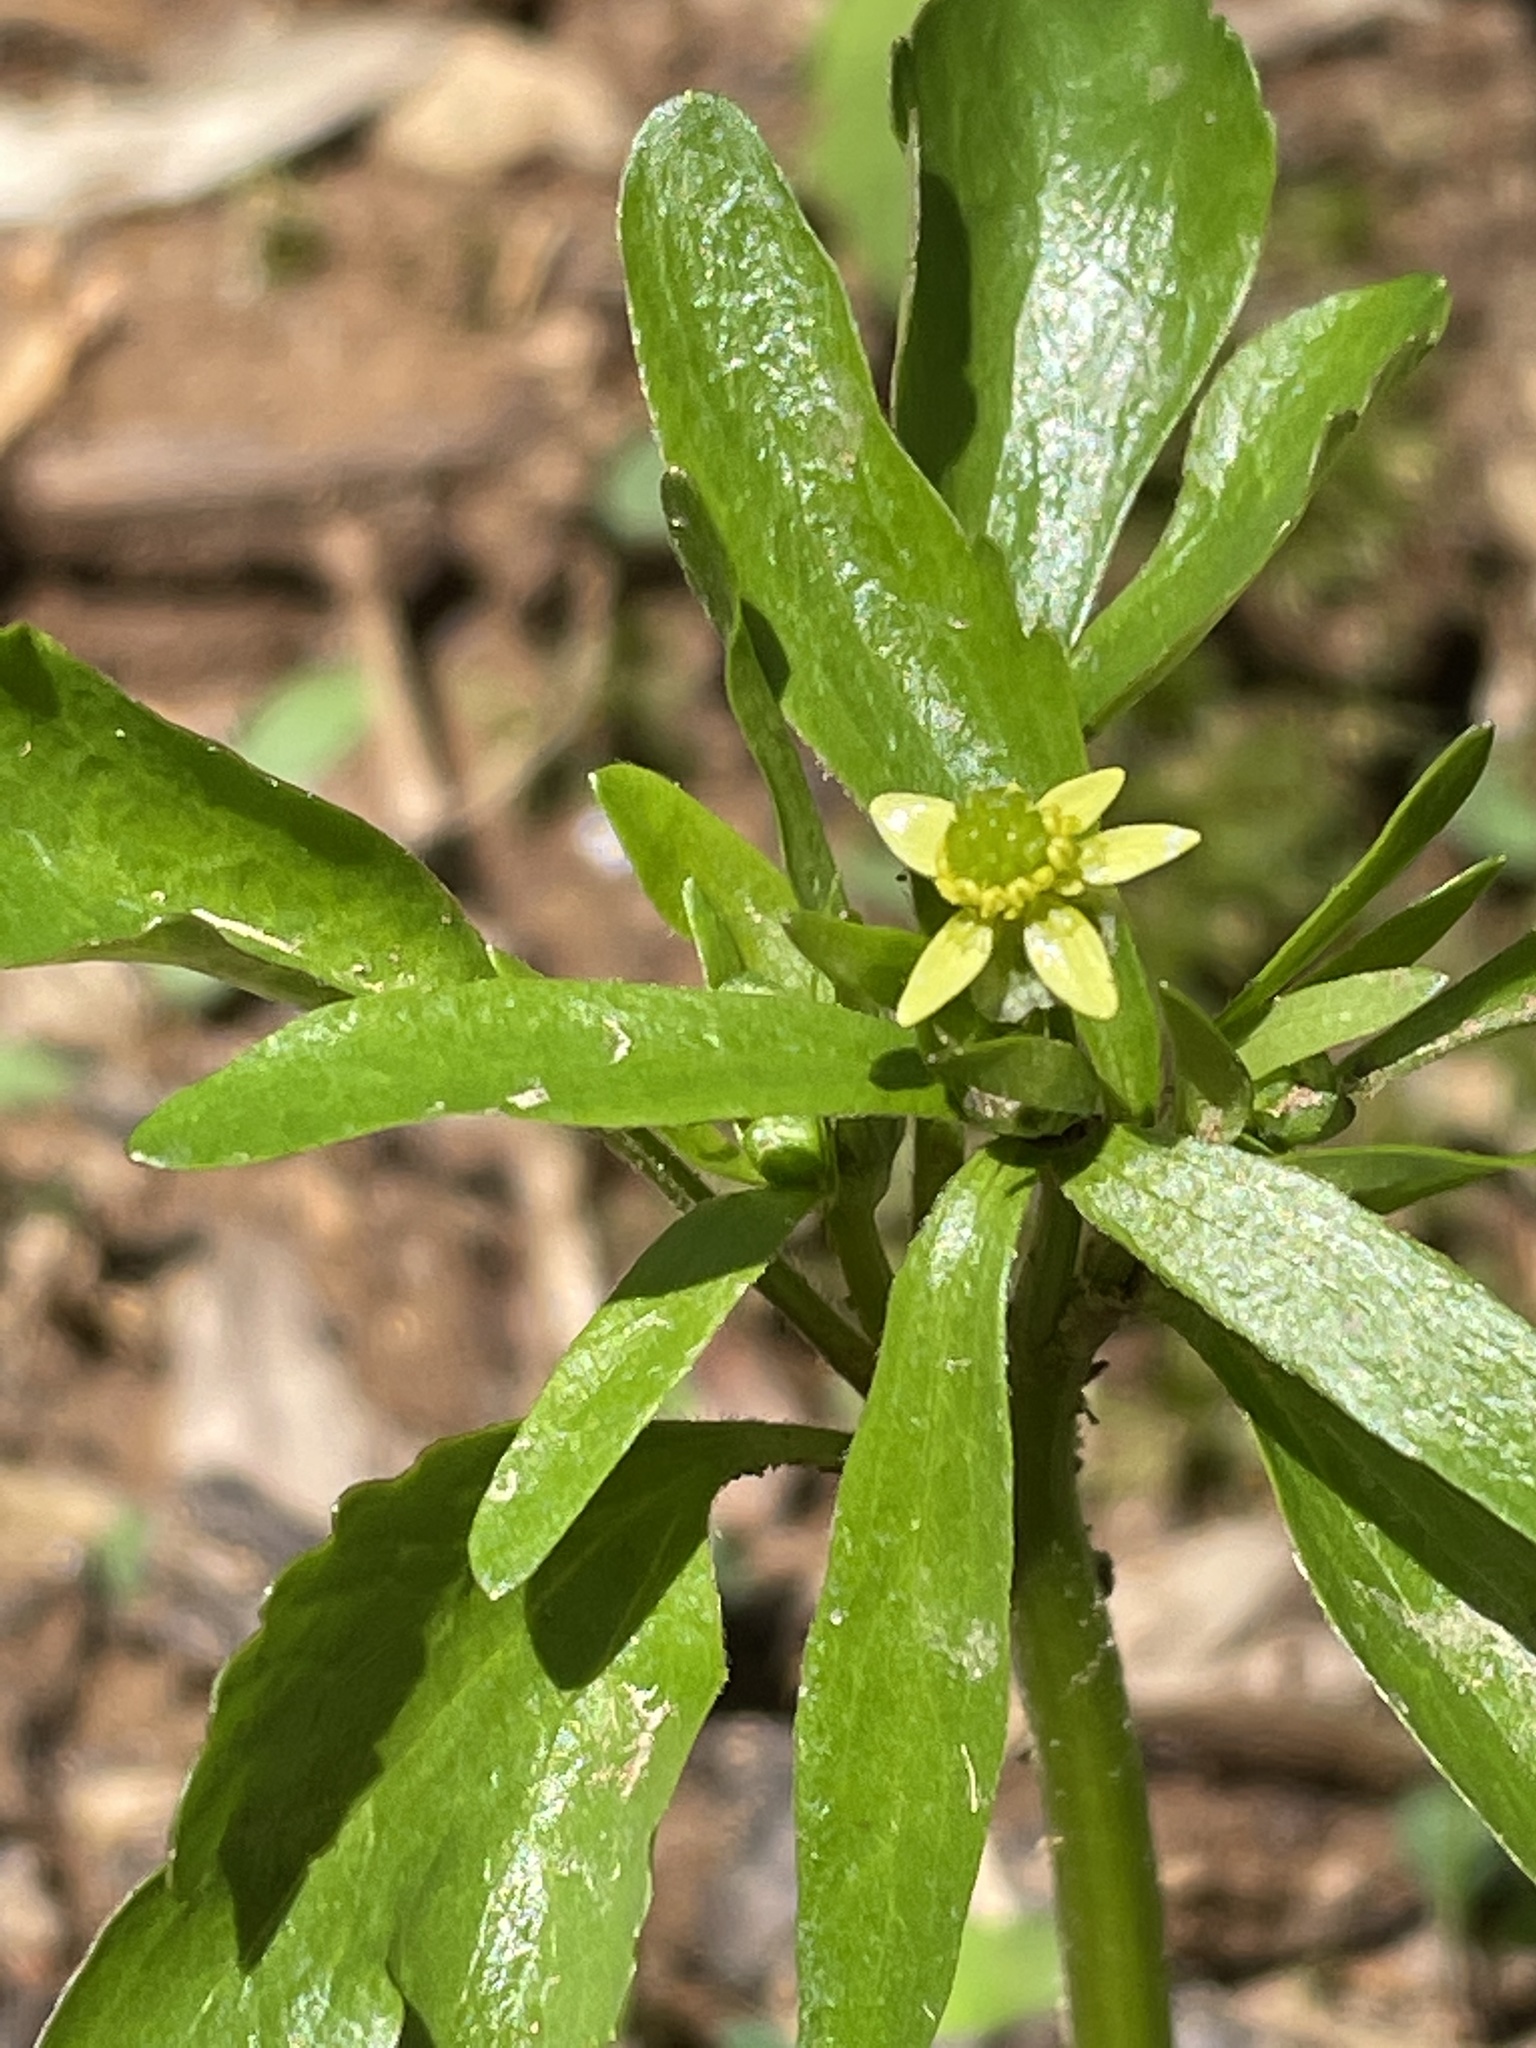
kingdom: Plantae
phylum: Tracheophyta
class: Magnoliopsida
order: Ranunculales
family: Ranunculaceae
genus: Ranunculus
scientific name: Ranunculus abortivus
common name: Early wood buttercup
